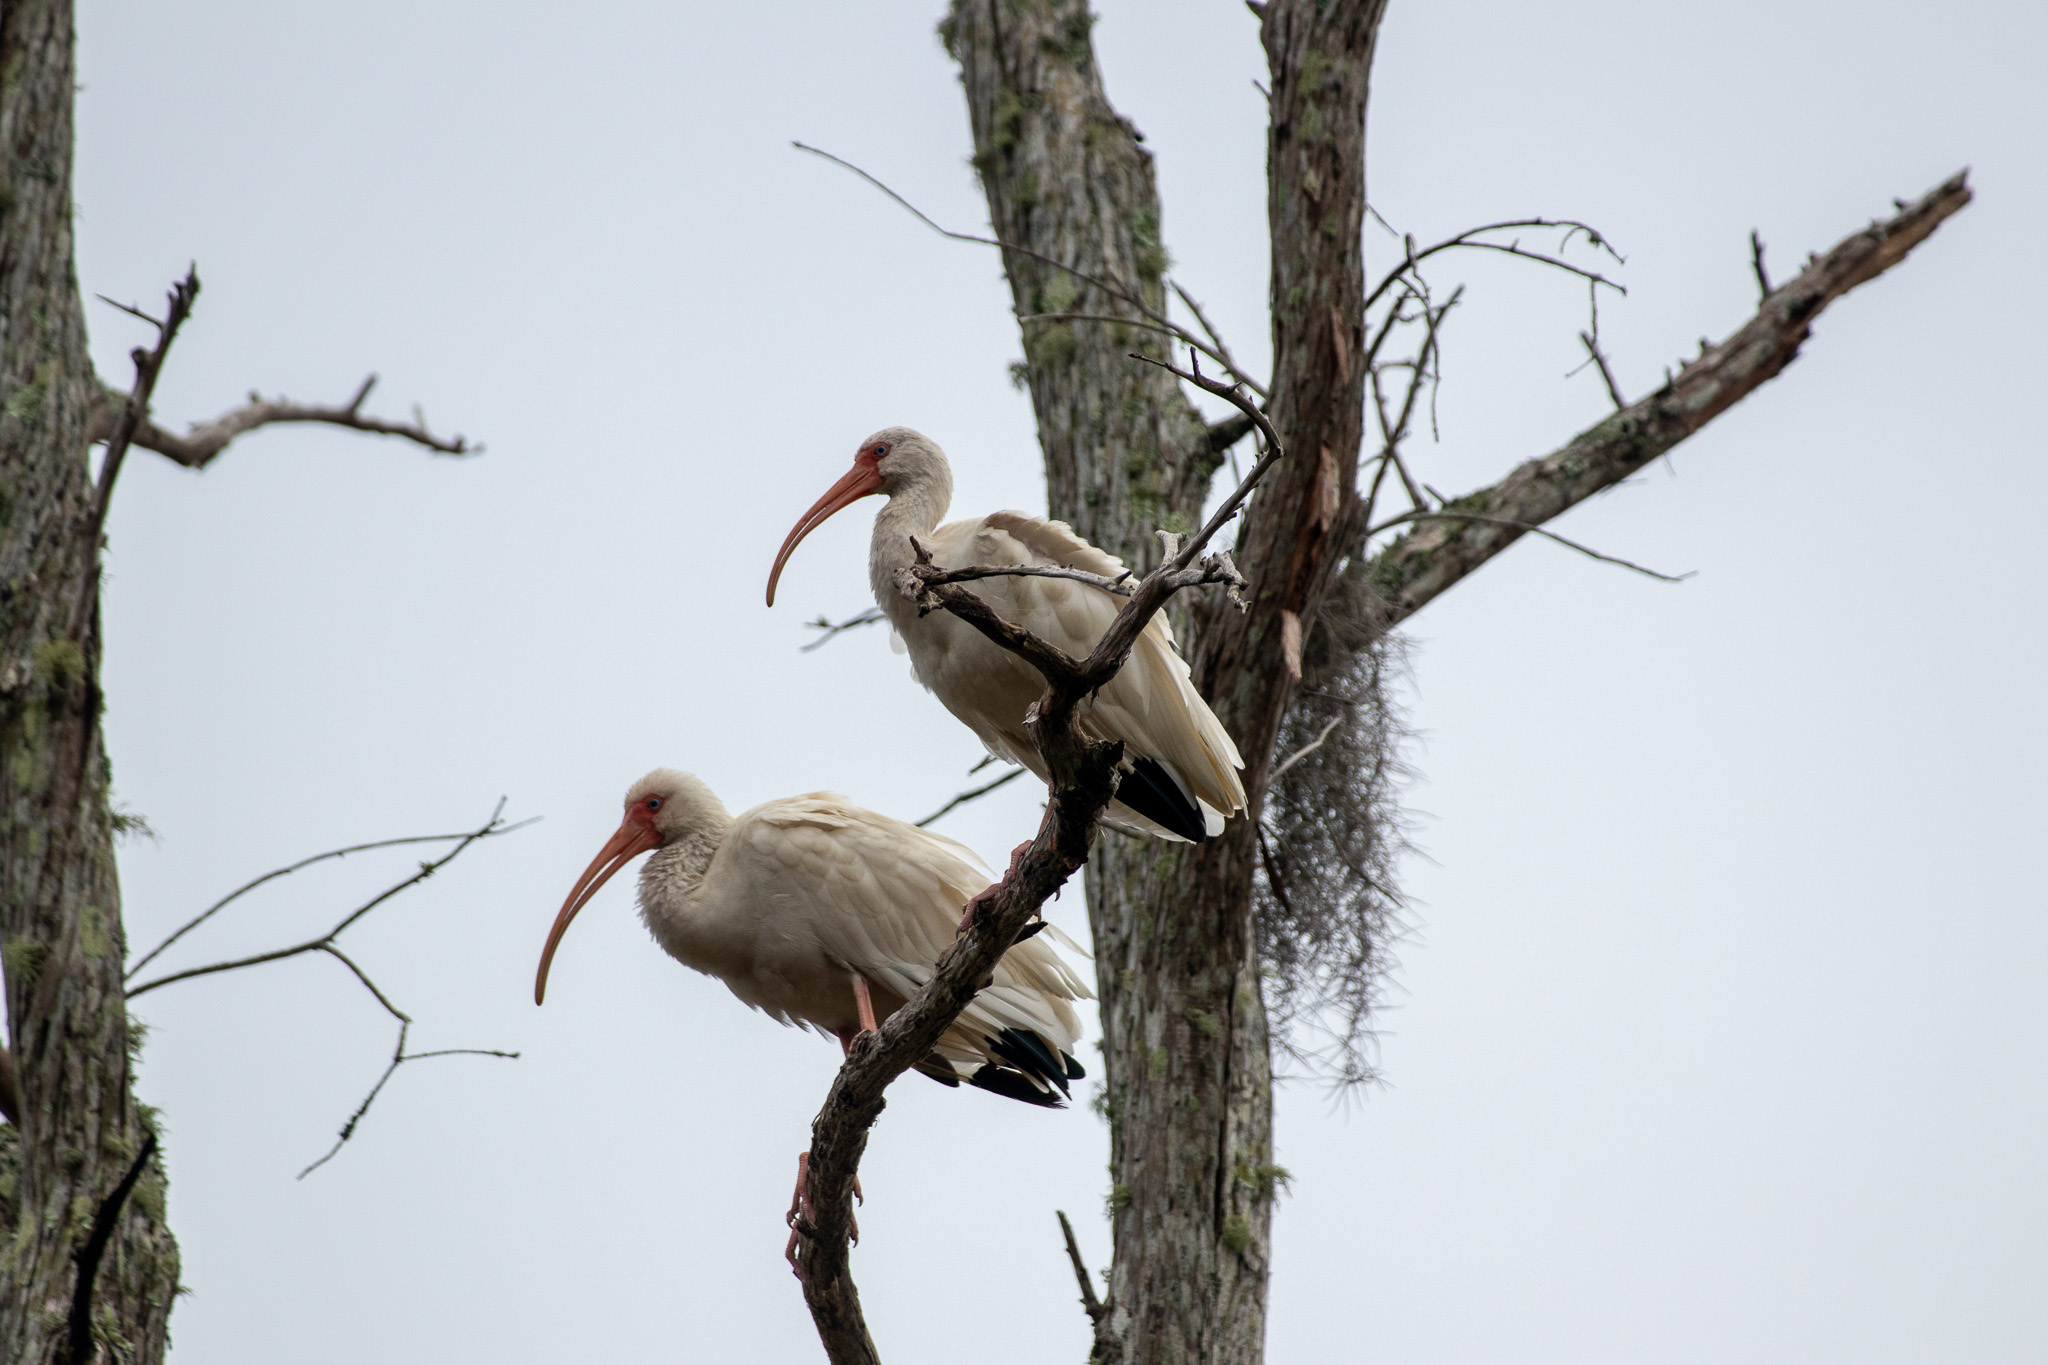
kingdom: Animalia
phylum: Chordata
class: Aves
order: Pelecaniformes
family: Threskiornithidae
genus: Eudocimus
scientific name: Eudocimus albus
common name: White ibis
